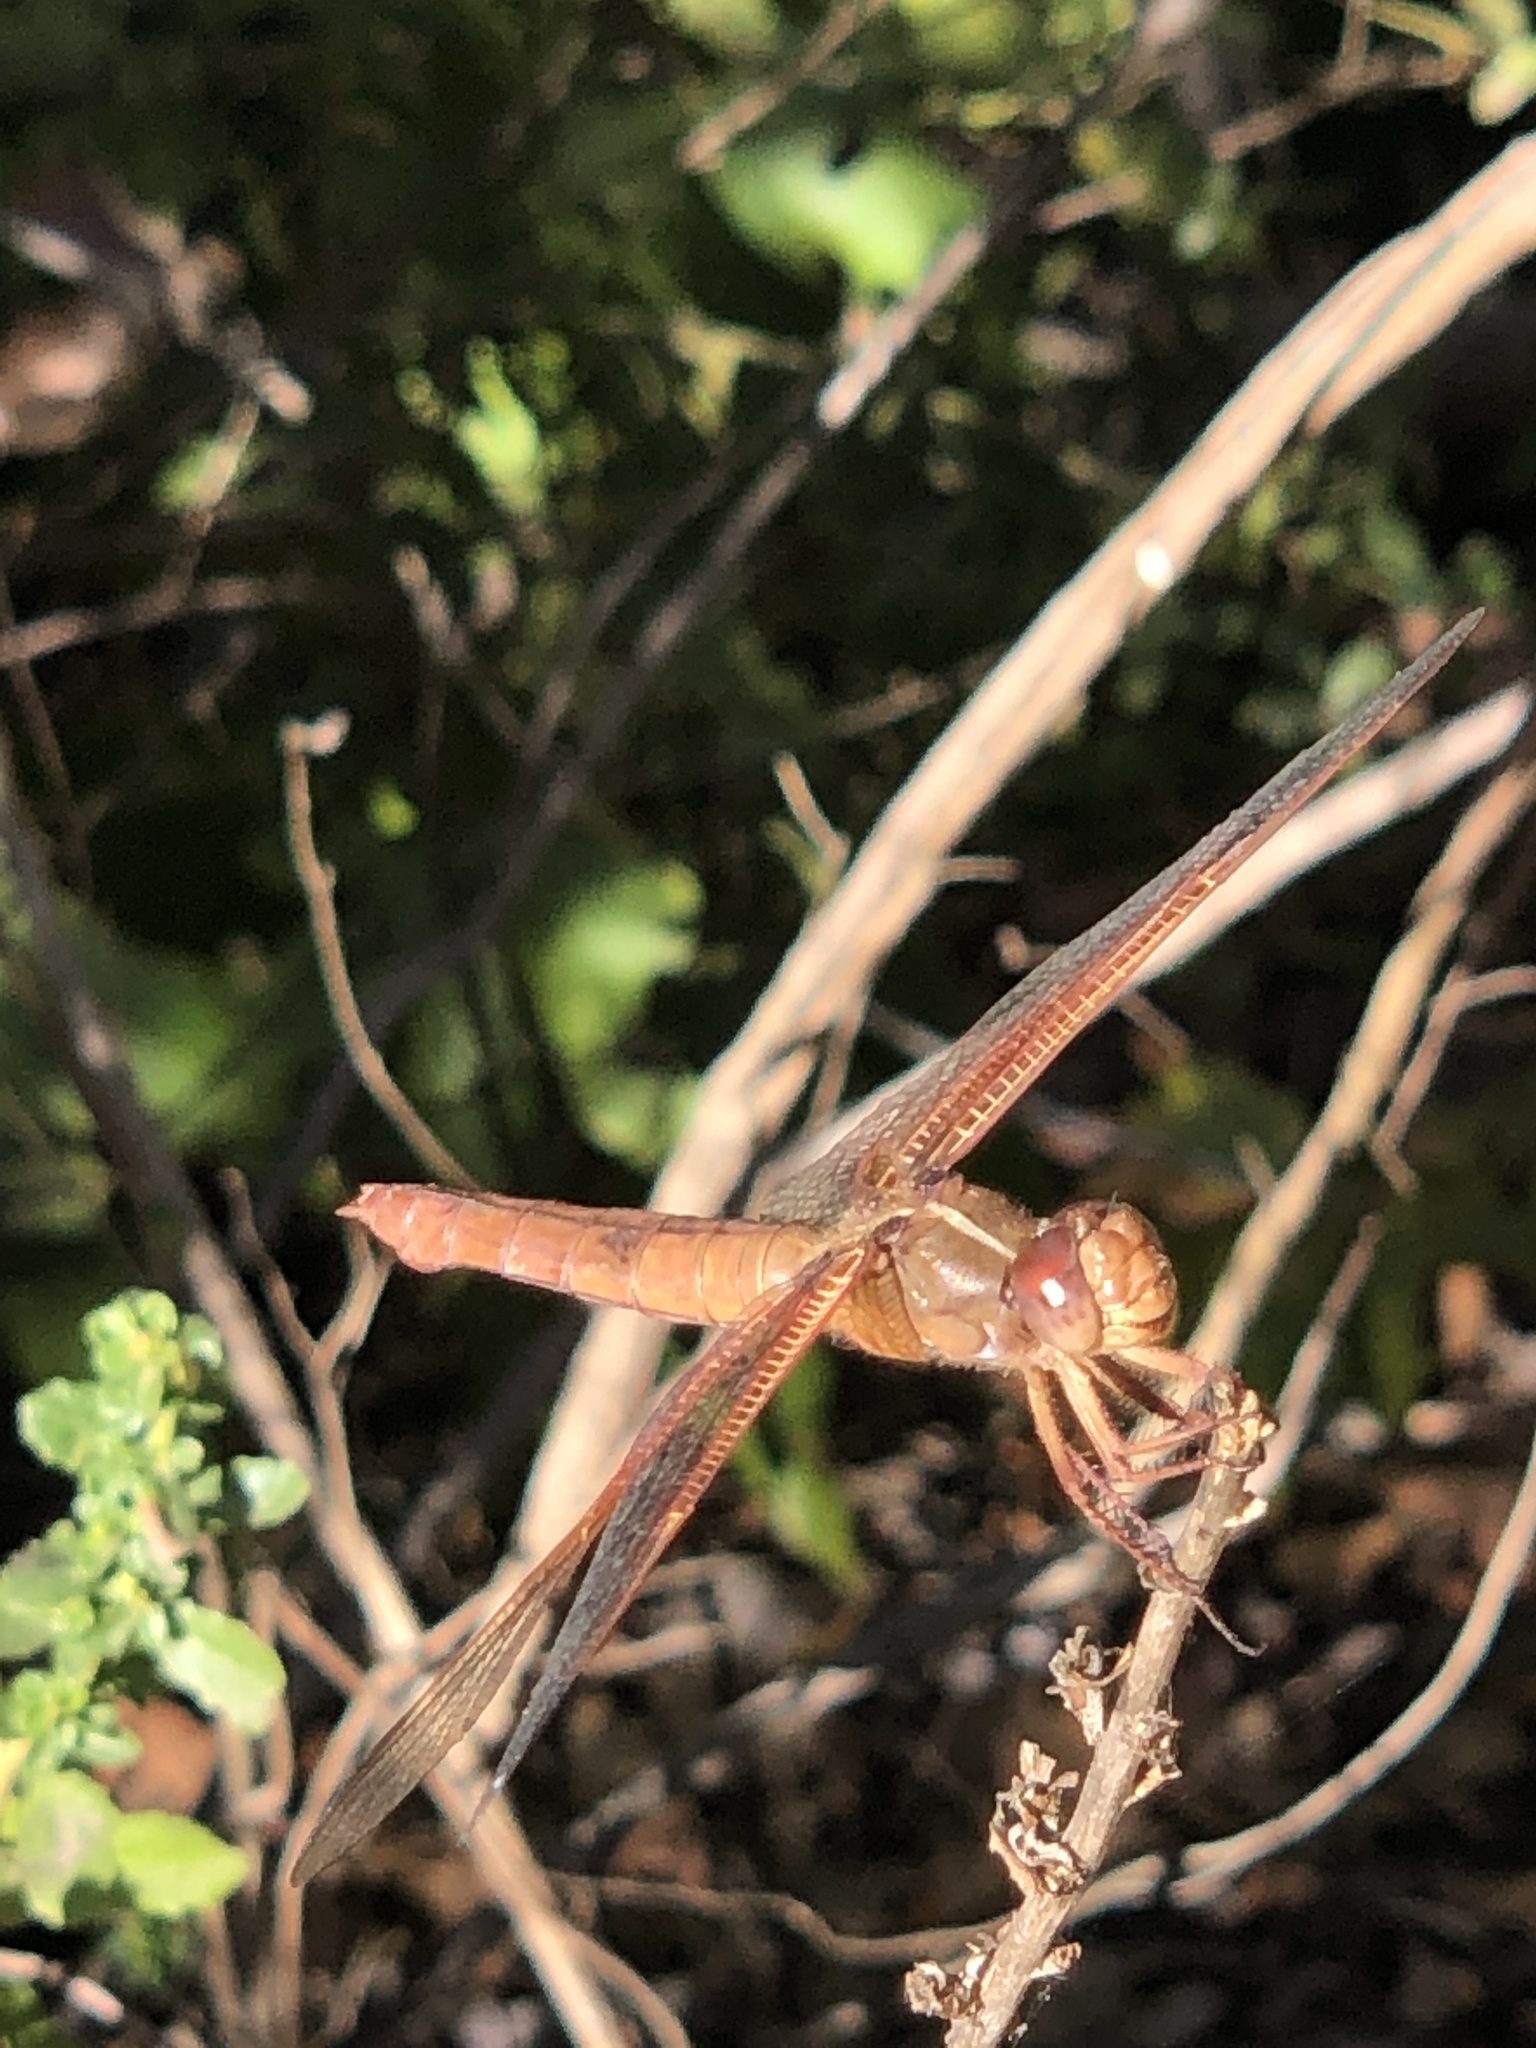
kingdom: Animalia
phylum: Arthropoda
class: Insecta
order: Odonata
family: Libellulidae
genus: Libellula
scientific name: Libellula saturata
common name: Flame skimmer
